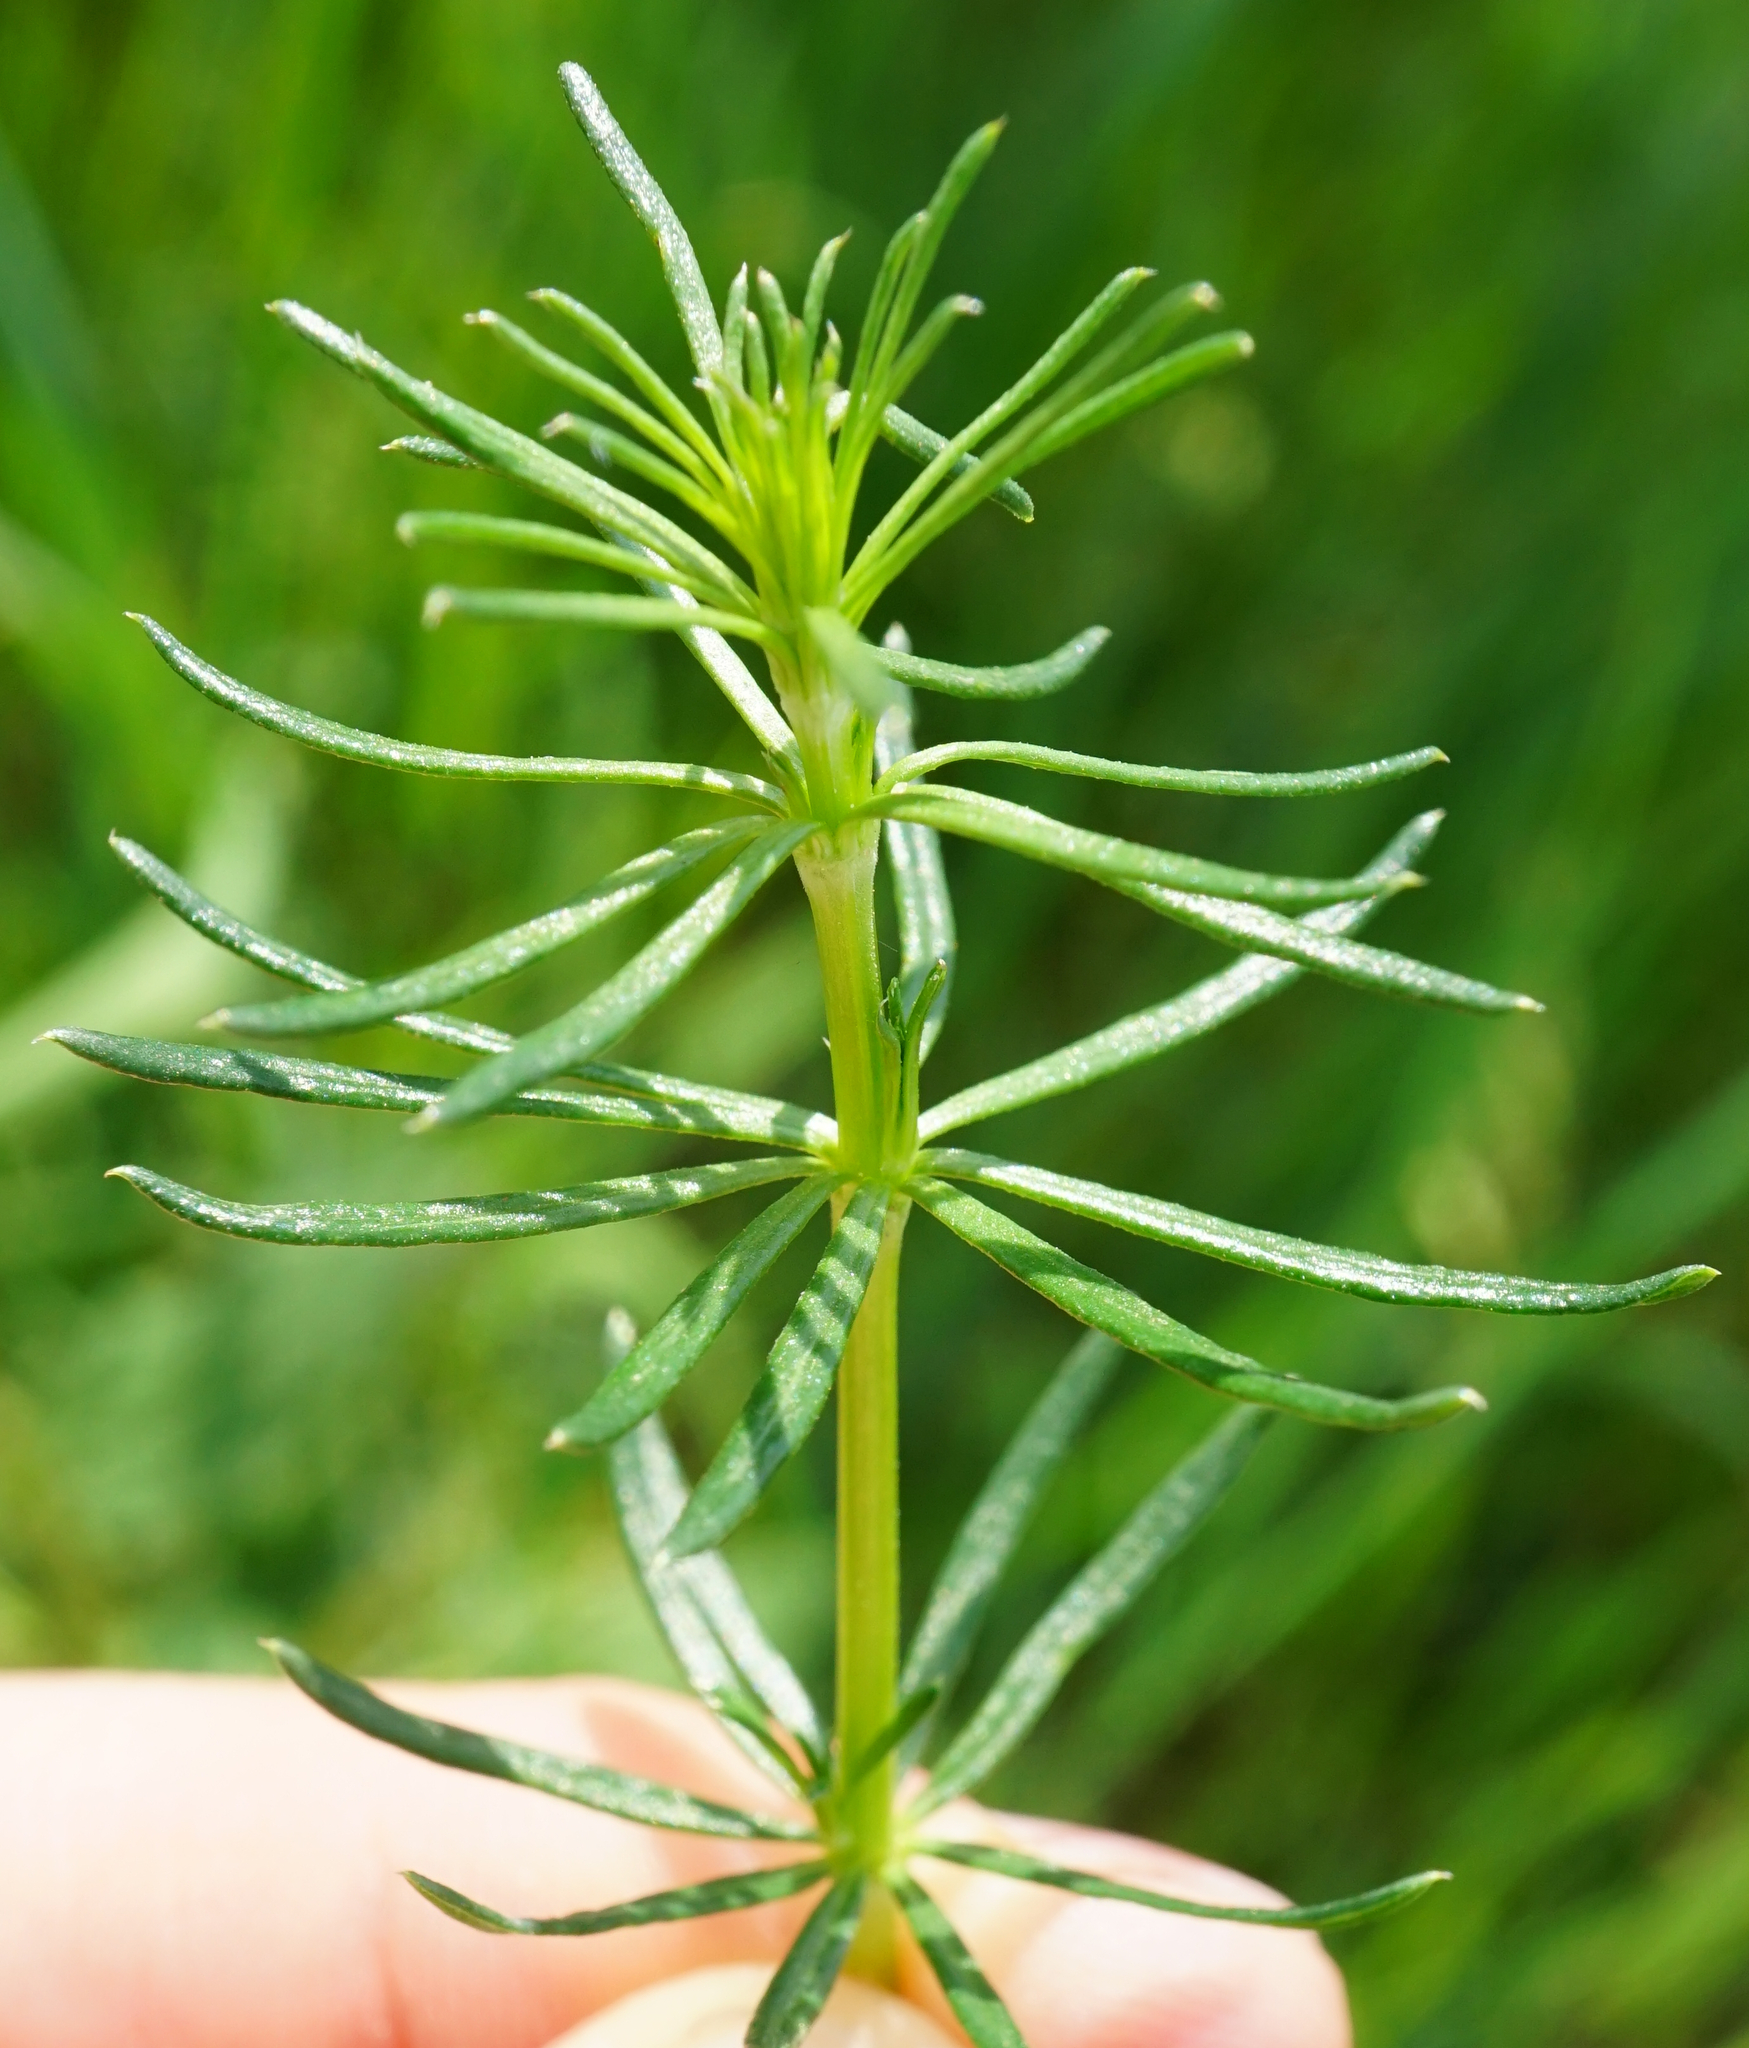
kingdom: Plantae
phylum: Tracheophyta
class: Magnoliopsida
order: Gentianales
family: Rubiaceae
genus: Galium
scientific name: Galium verum
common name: Lady's bedstraw
